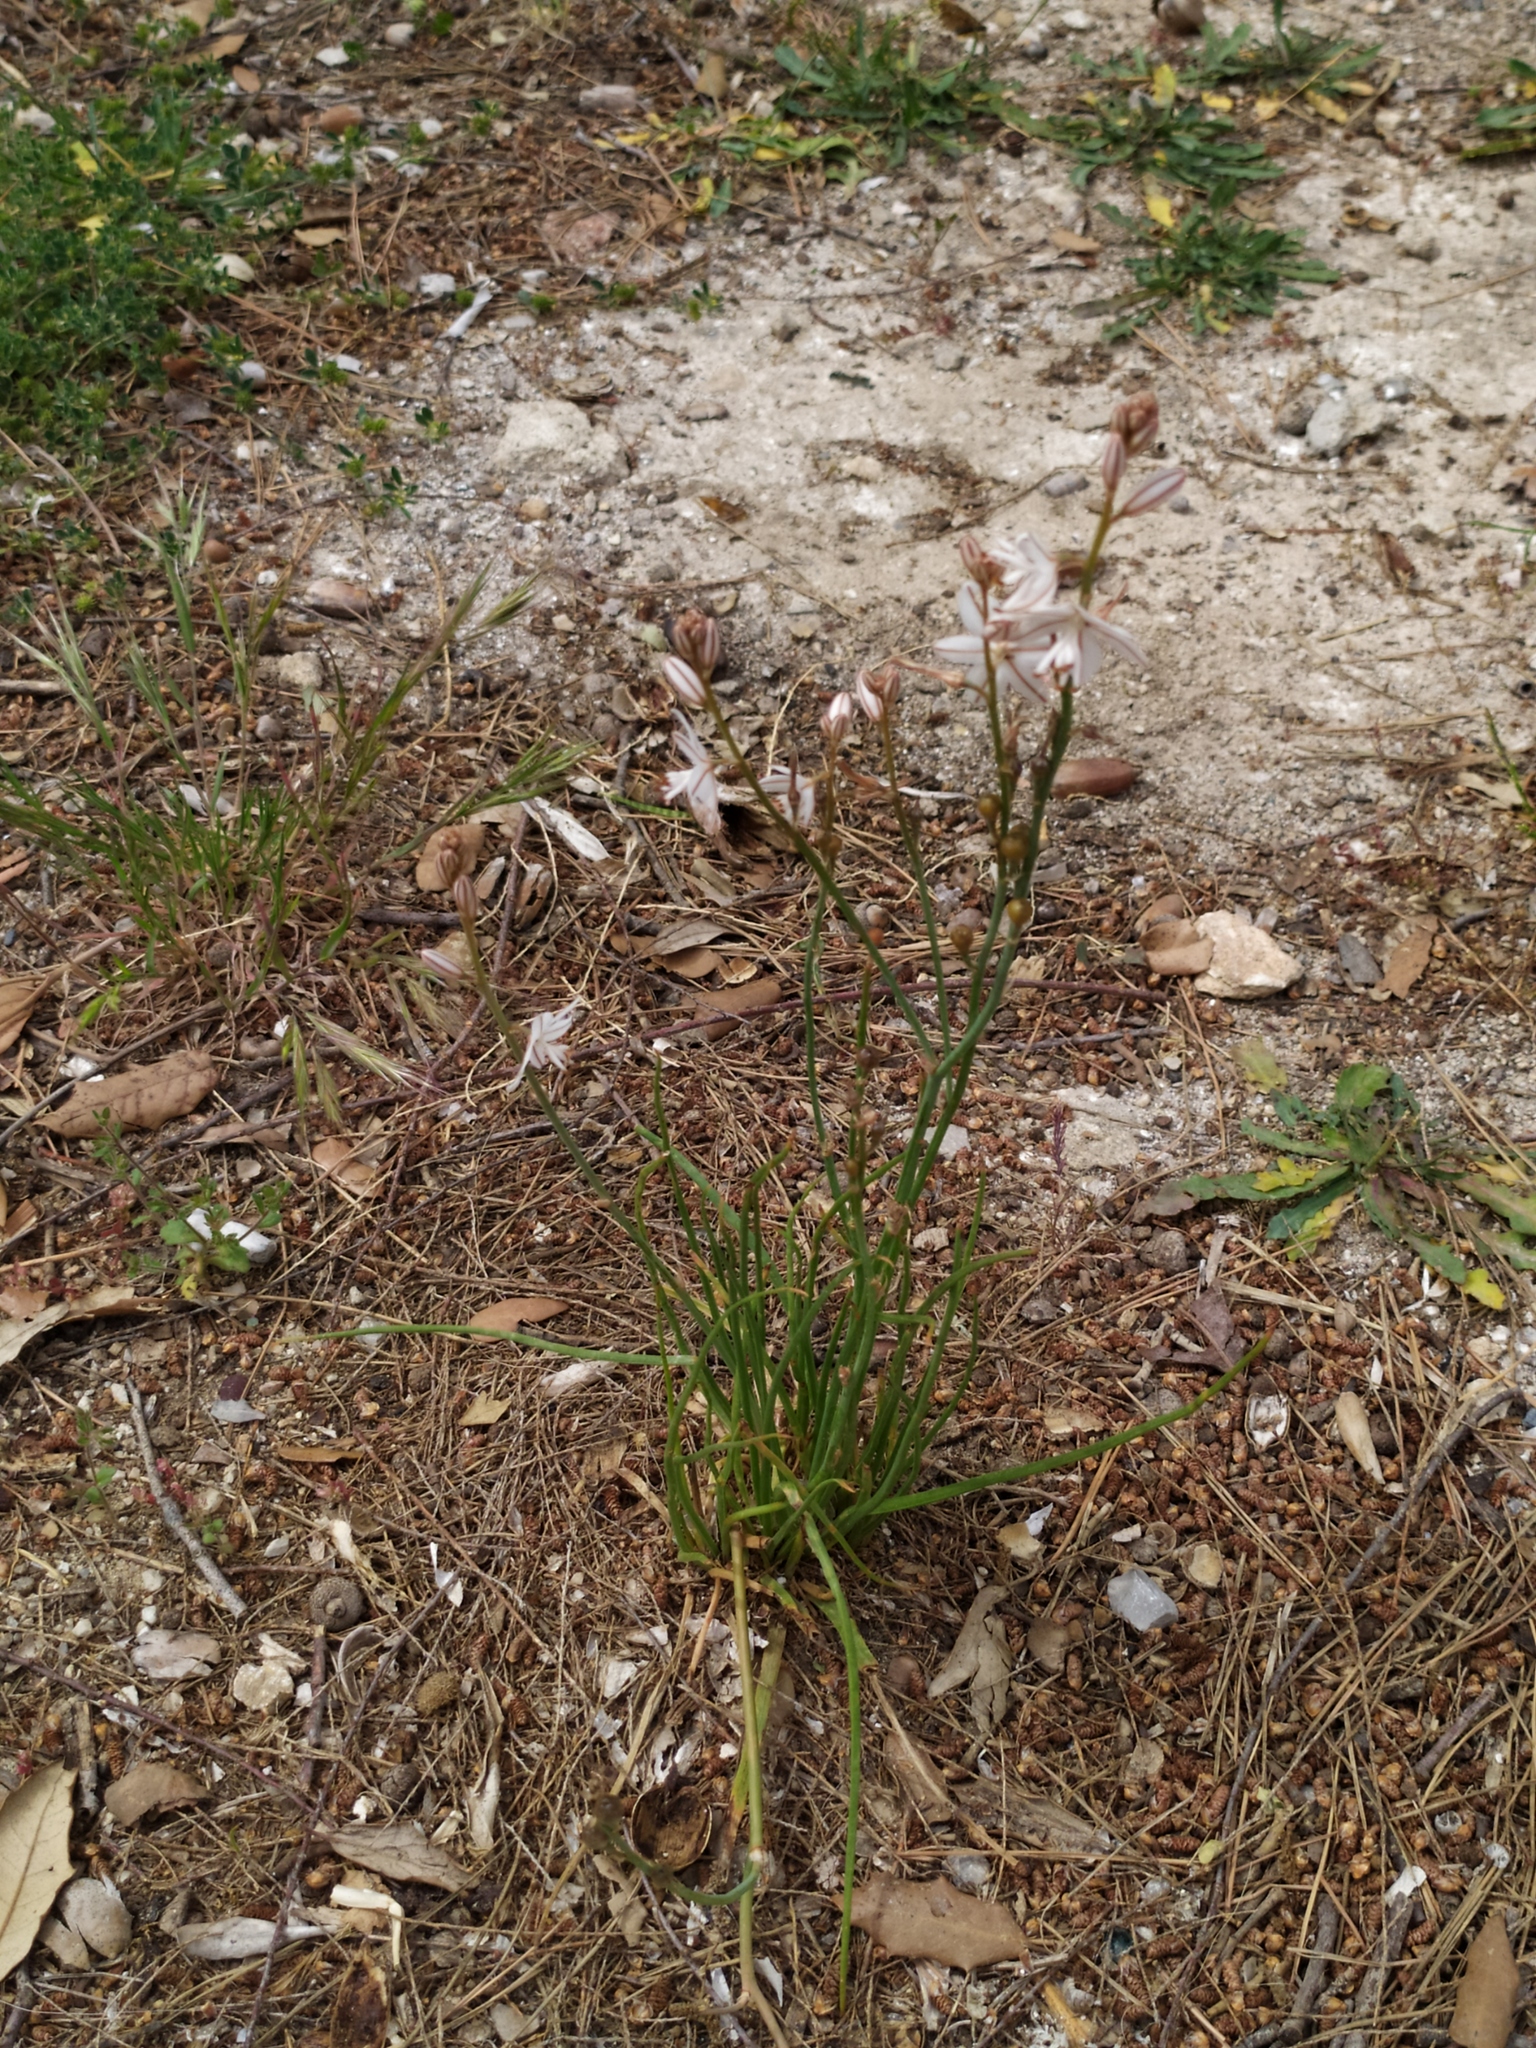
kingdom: Plantae
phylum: Tracheophyta
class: Liliopsida
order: Asparagales
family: Asphodelaceae
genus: Asphodelus
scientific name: Asphodelus fistulosus
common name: Onionweed
